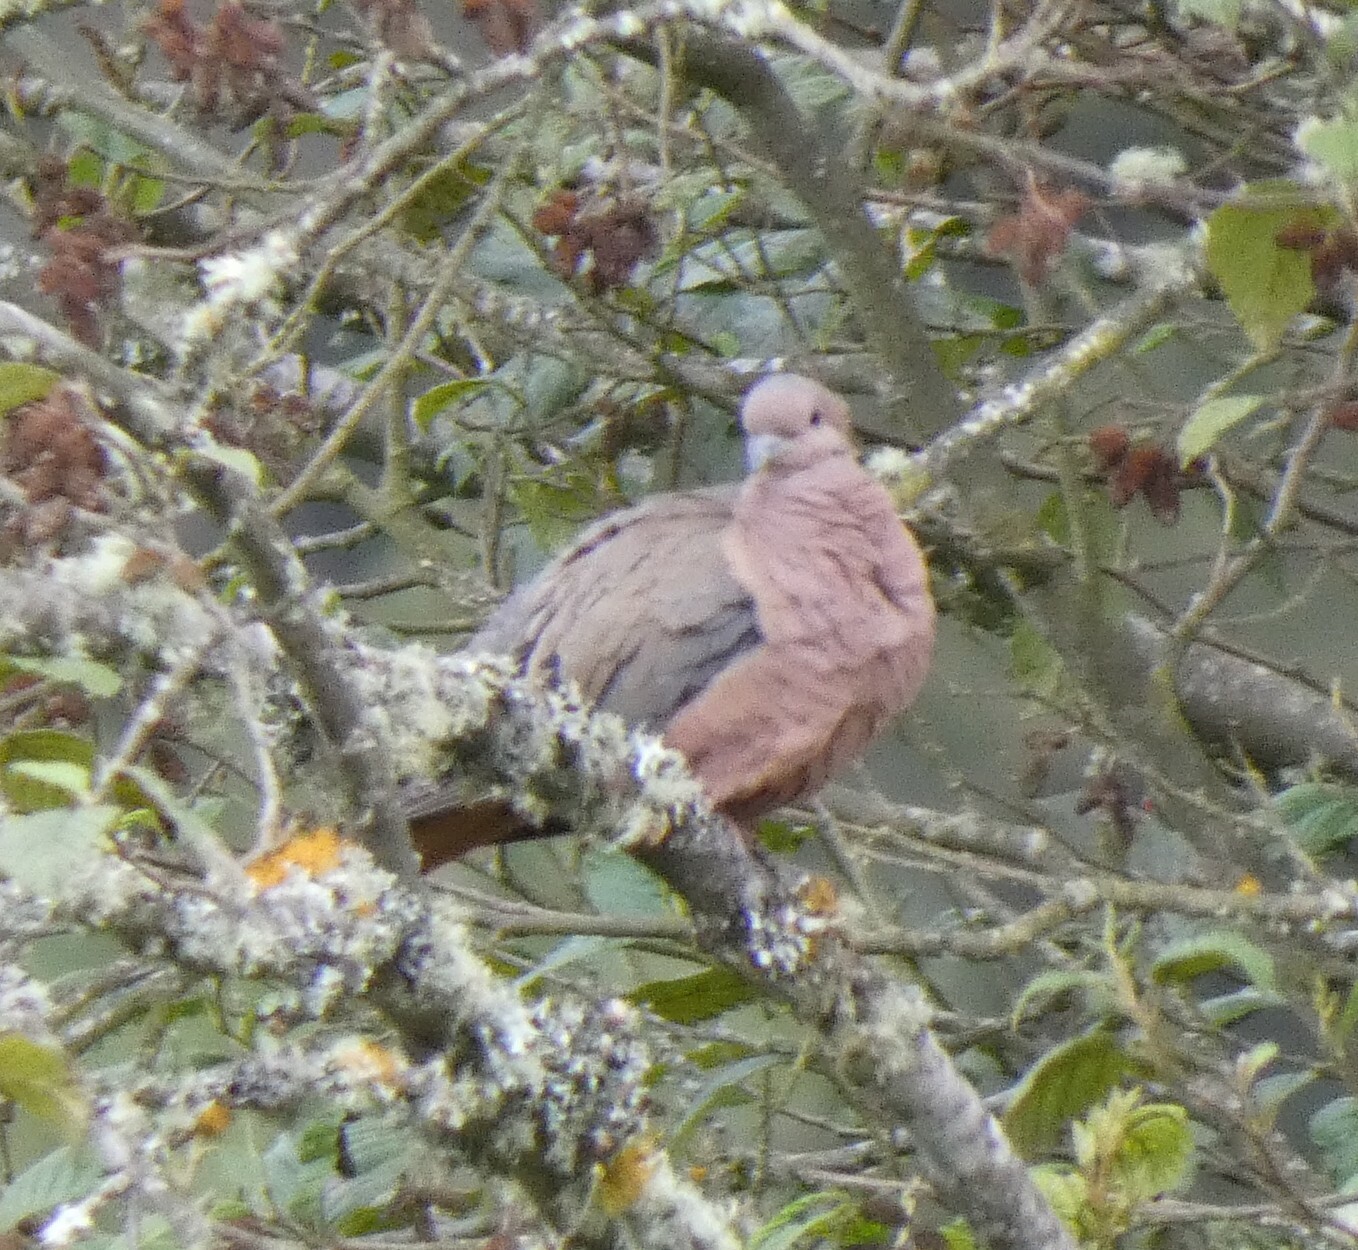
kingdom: Animalia
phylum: Chordata
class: Aves
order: Columbiformes
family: Columbidae
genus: Zenaida
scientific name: Zenaida auriculata
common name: Eared dove
